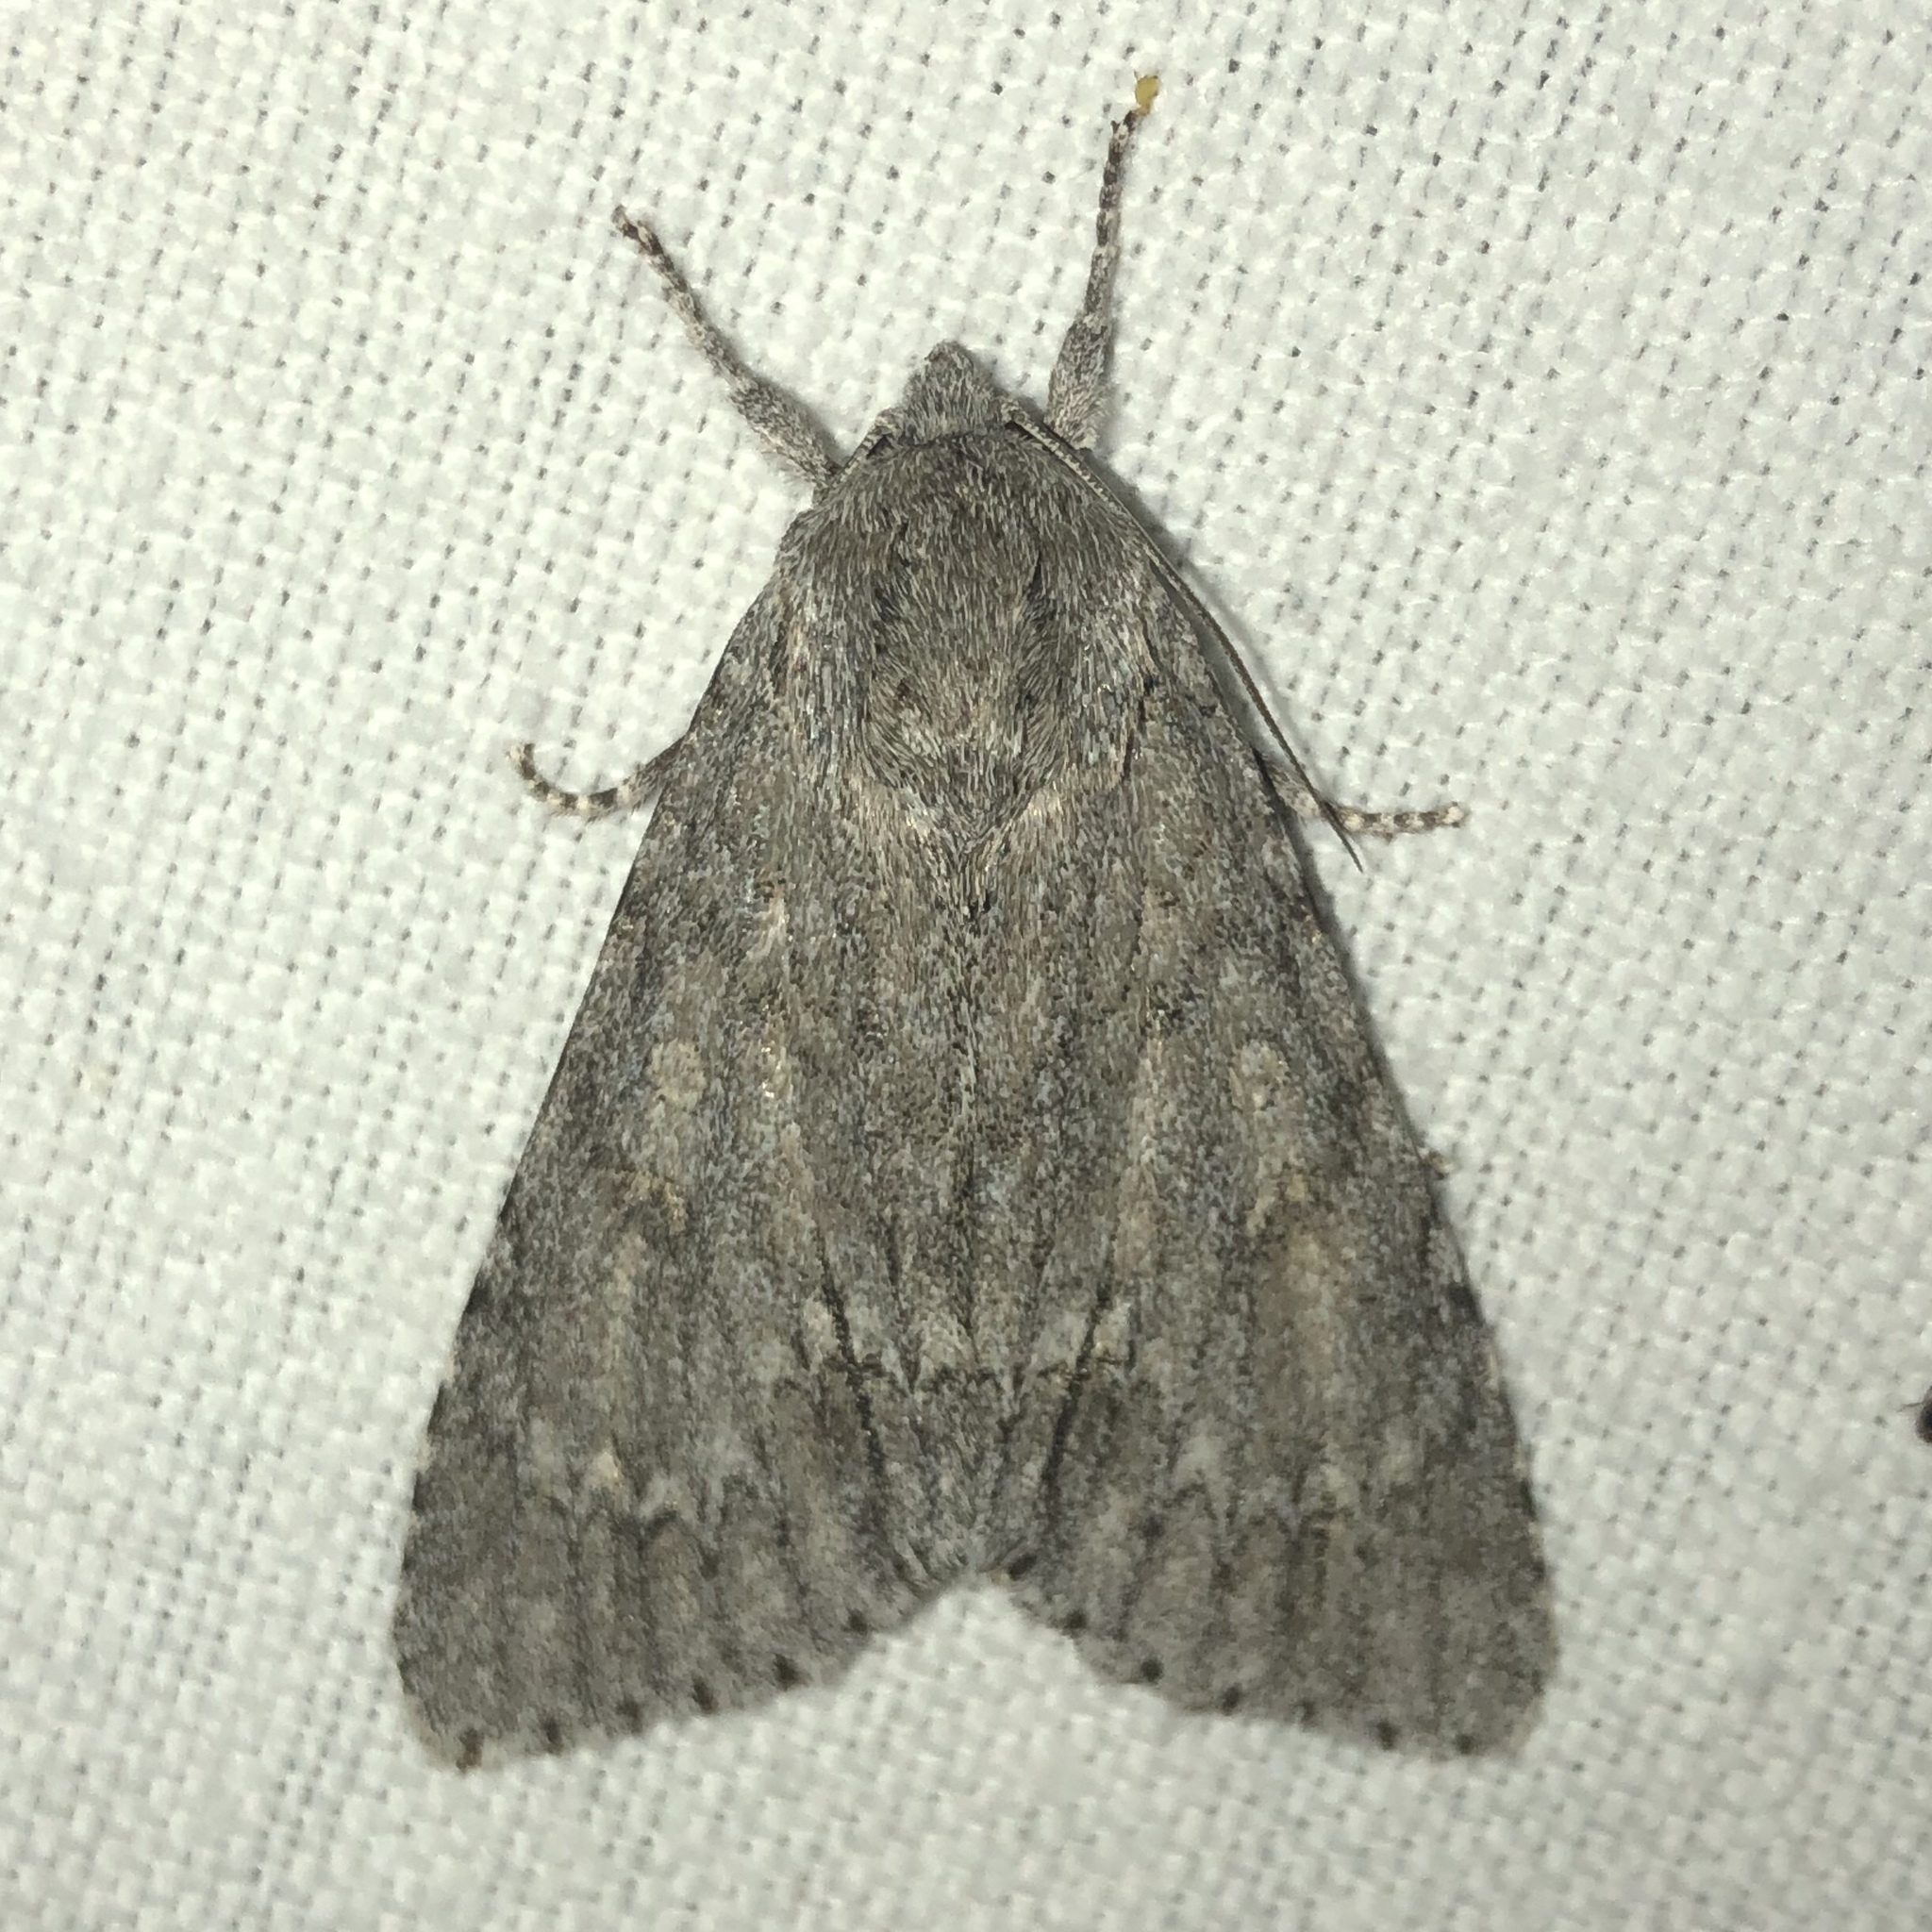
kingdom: Animalia
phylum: Arthropoda
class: Insecta
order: Lepidoptera
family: Noctuidae
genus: Acronicta
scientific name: Acronicta americana
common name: American dagger
